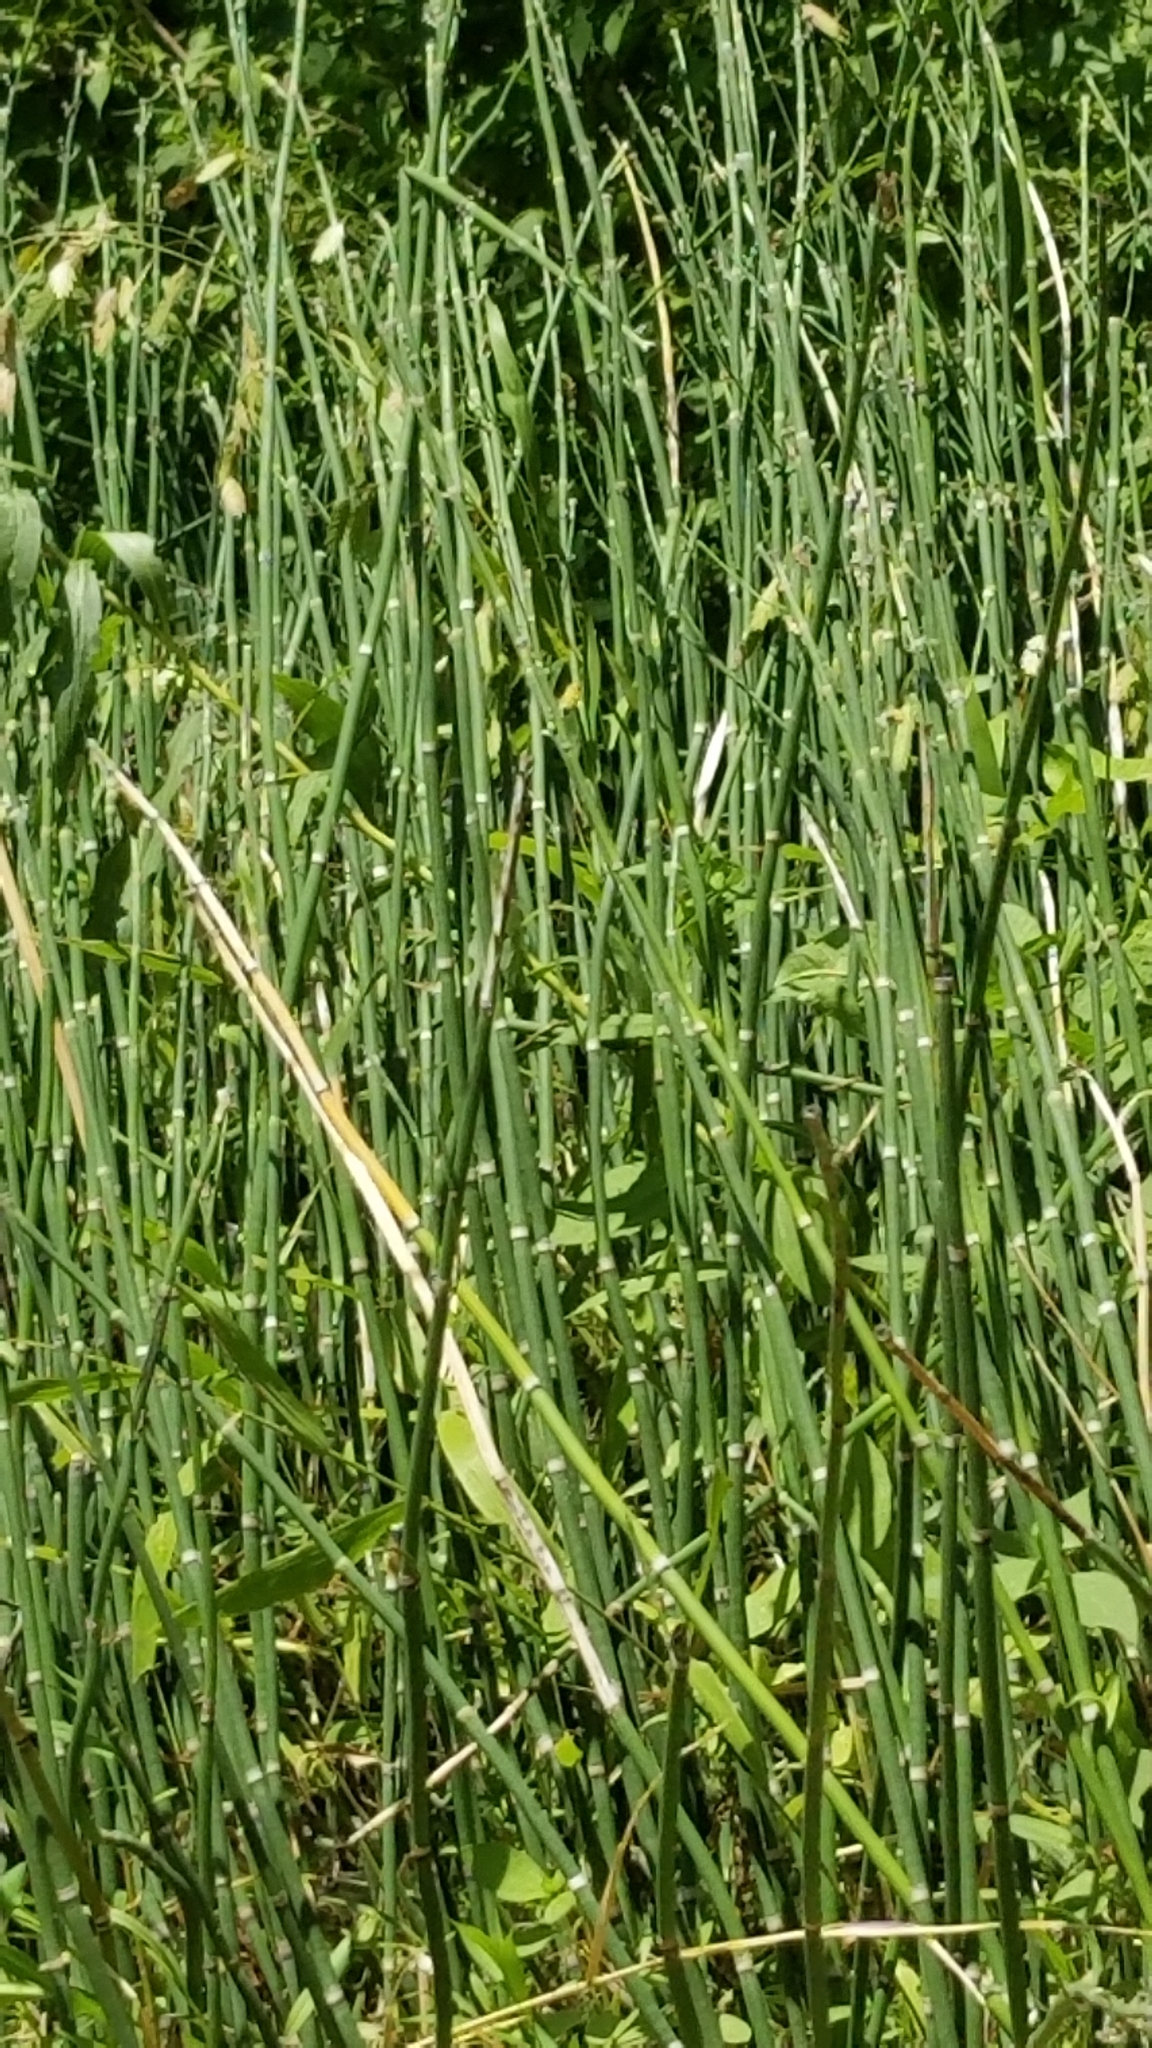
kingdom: Plantae
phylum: Tracheophyta
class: Polypodiopsida
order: Equisetales
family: Equisetaceae
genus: Equisetum
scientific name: Equisetum hyemale
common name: Rough horsetail
